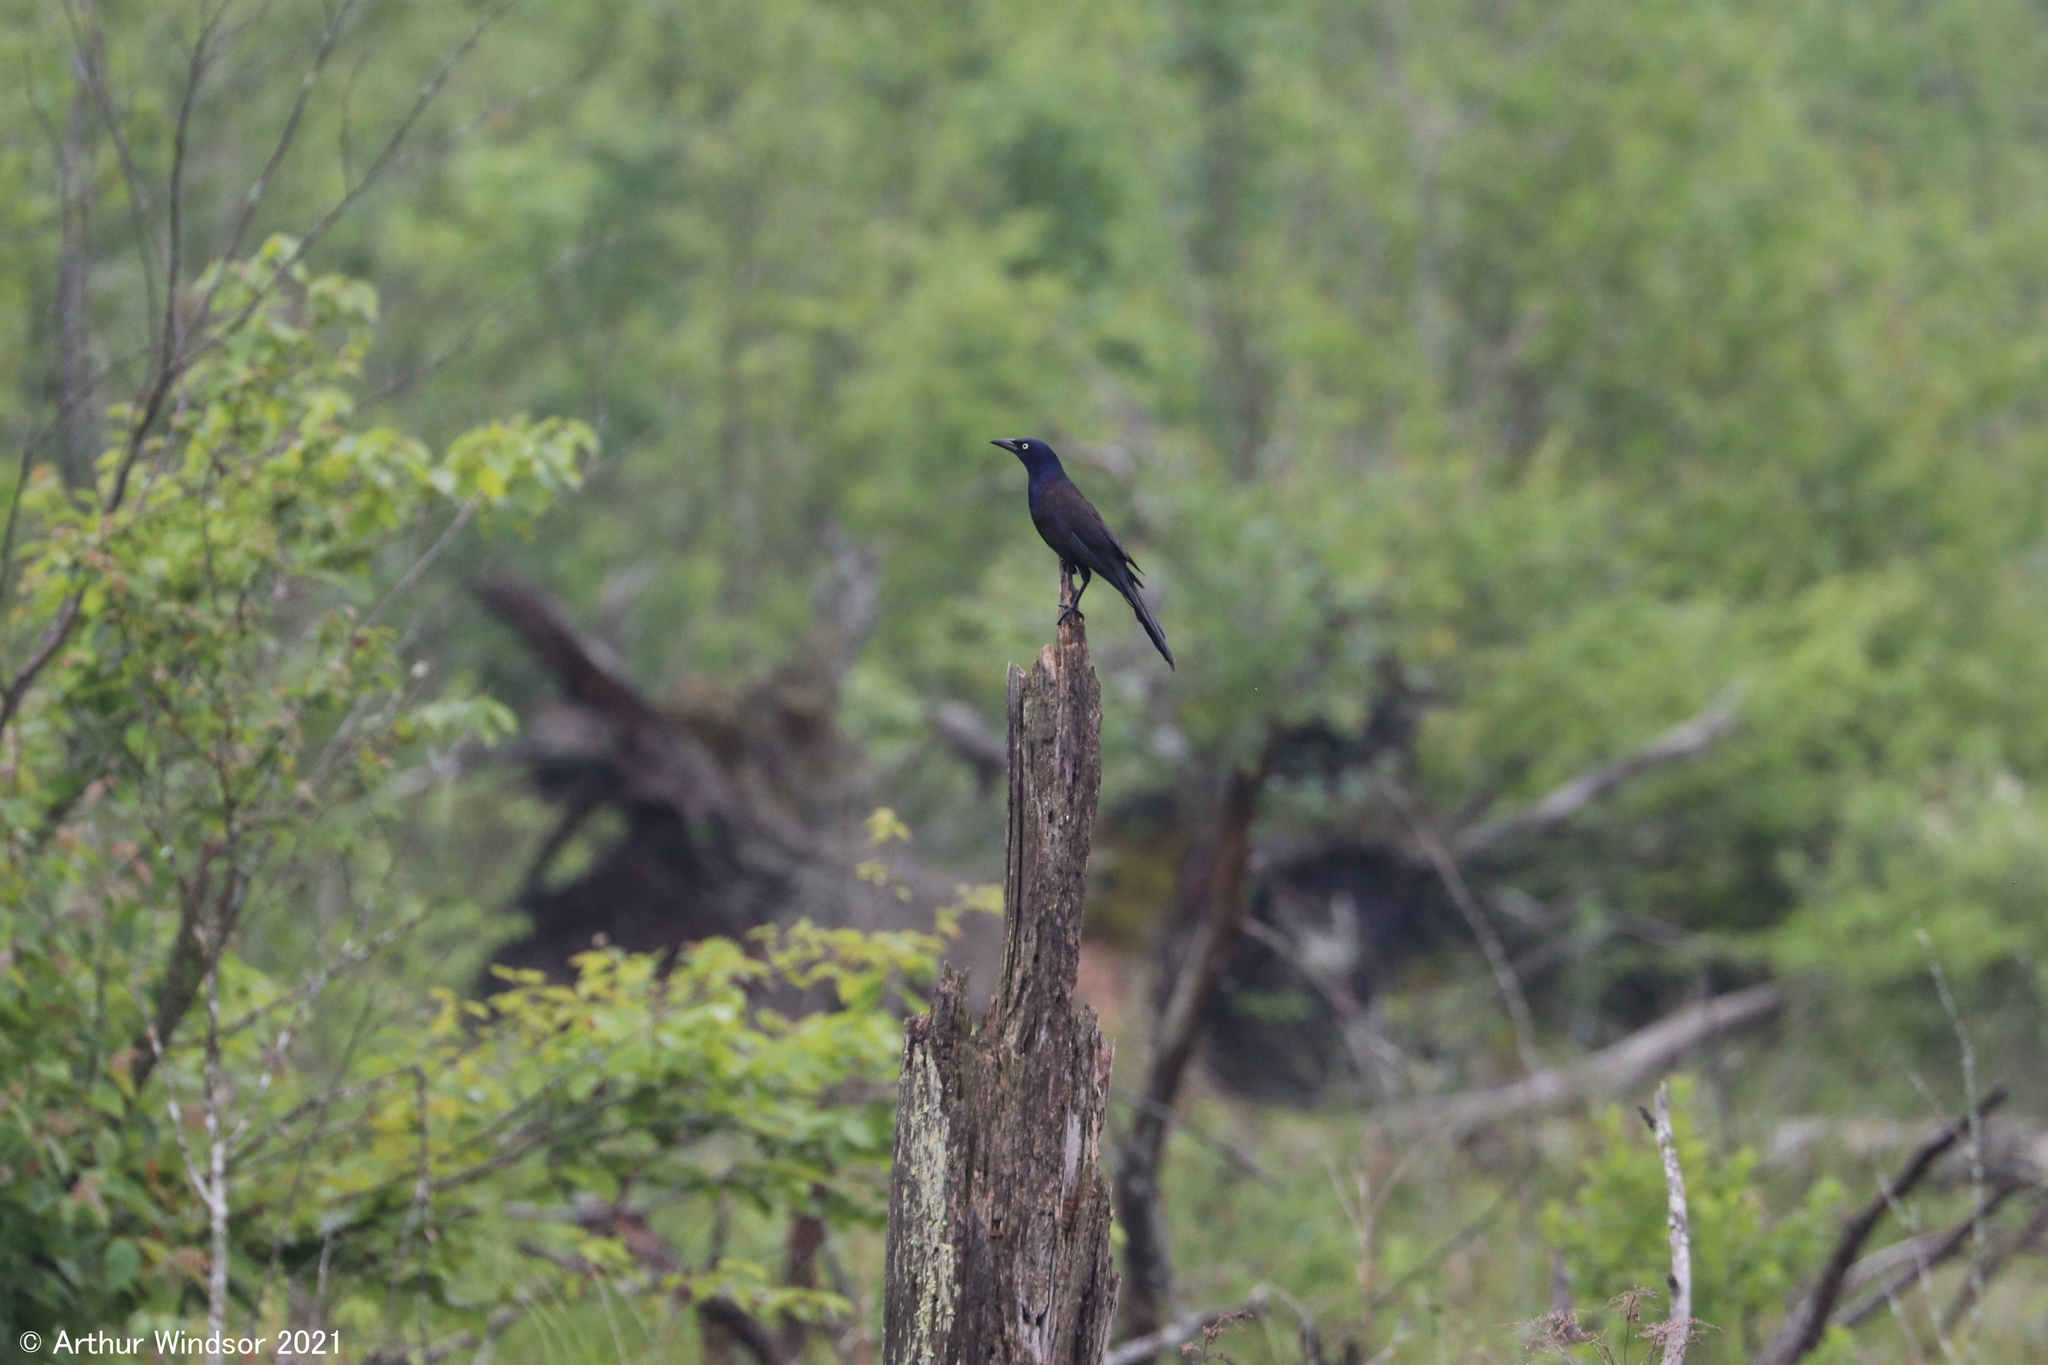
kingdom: Animalia
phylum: Chordata
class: Aves
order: Passeriformes
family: Icteridae
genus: Quiscalus
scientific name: Quiscalus quiscula
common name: Common grackle
